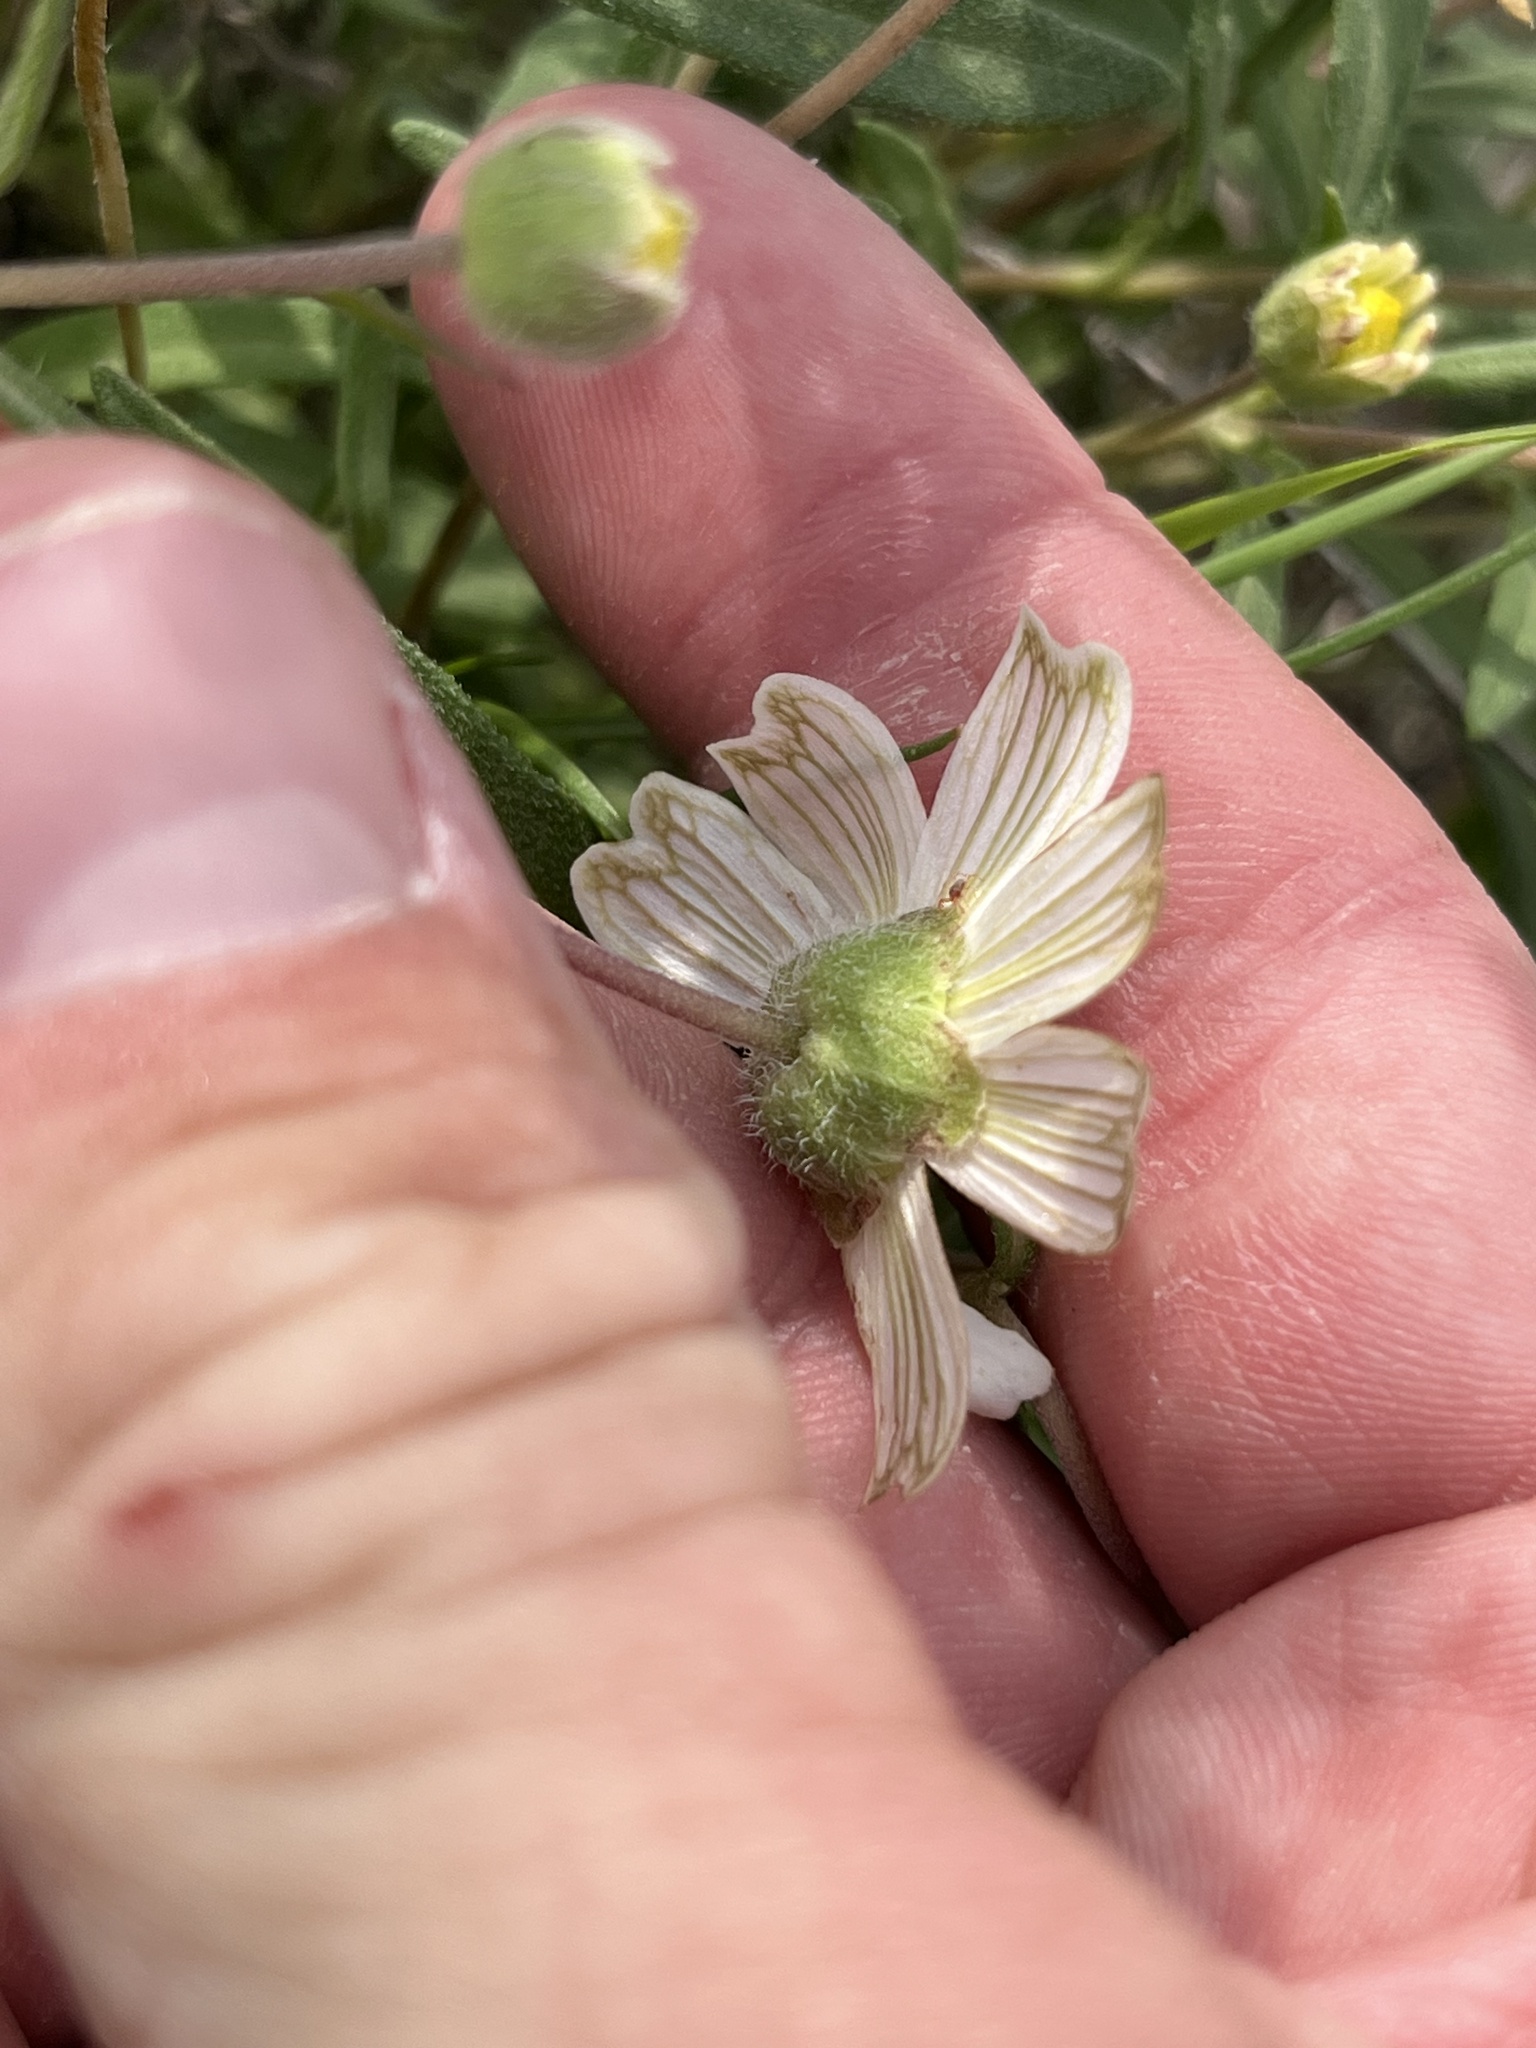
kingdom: Plantae
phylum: Tracheophyta
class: Magnoliopsida
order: Asterales
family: Asteraceae
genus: Melampodium
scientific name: Melampodium leucanthum
